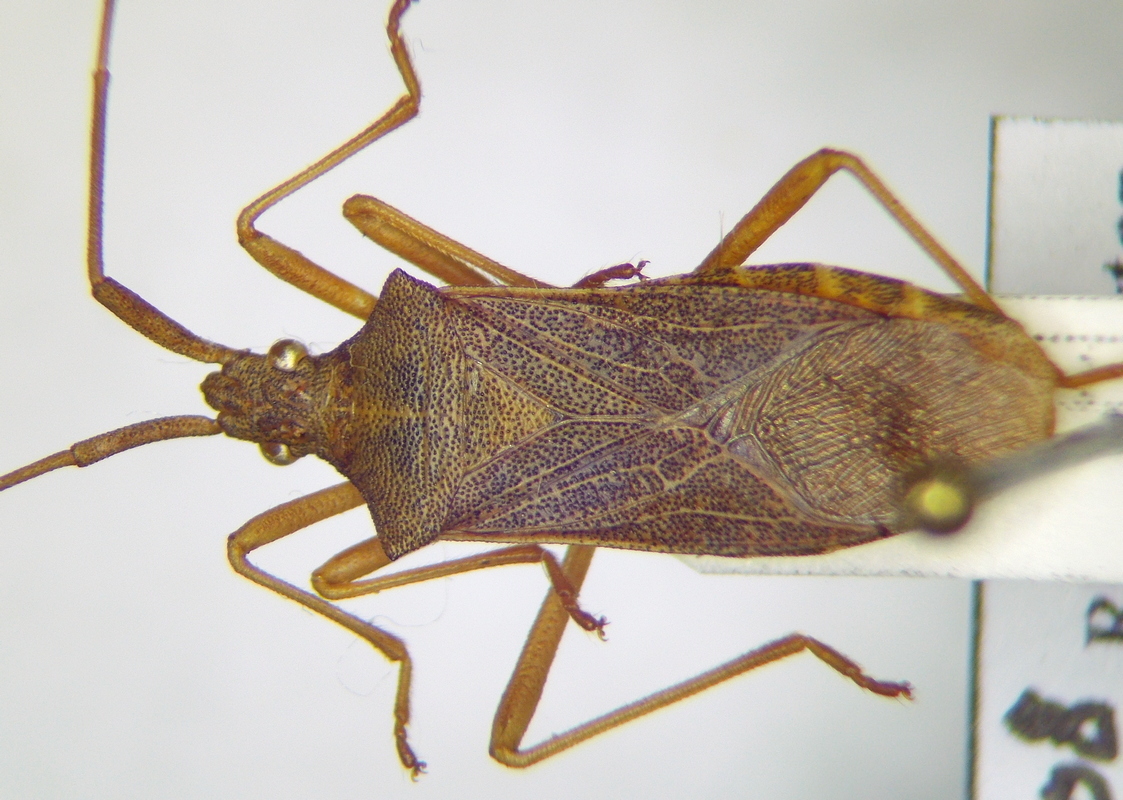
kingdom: Animalia
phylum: Arthropoda
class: Insecta
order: Hemiptera
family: Coreidae
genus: Gonocerus
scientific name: Gonocerus acuteangulatus
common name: Box bug
